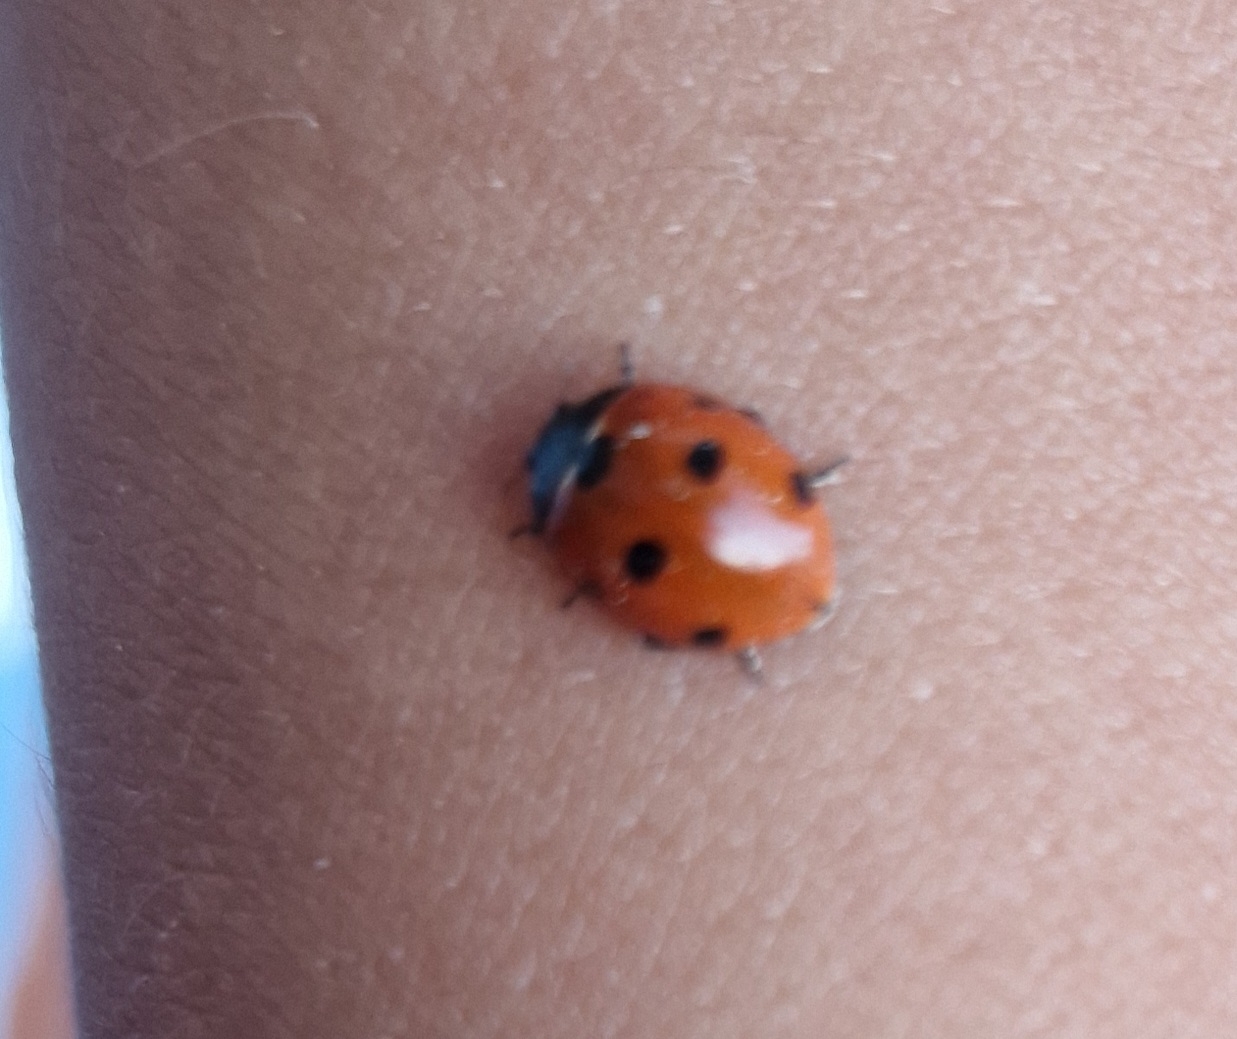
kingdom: Animalia
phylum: Arthropoda
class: Insecta
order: Coleoptera
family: Coccinellidae
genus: Coccinella
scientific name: Coccinella septempunctata
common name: Sevenspotted lady beetle
